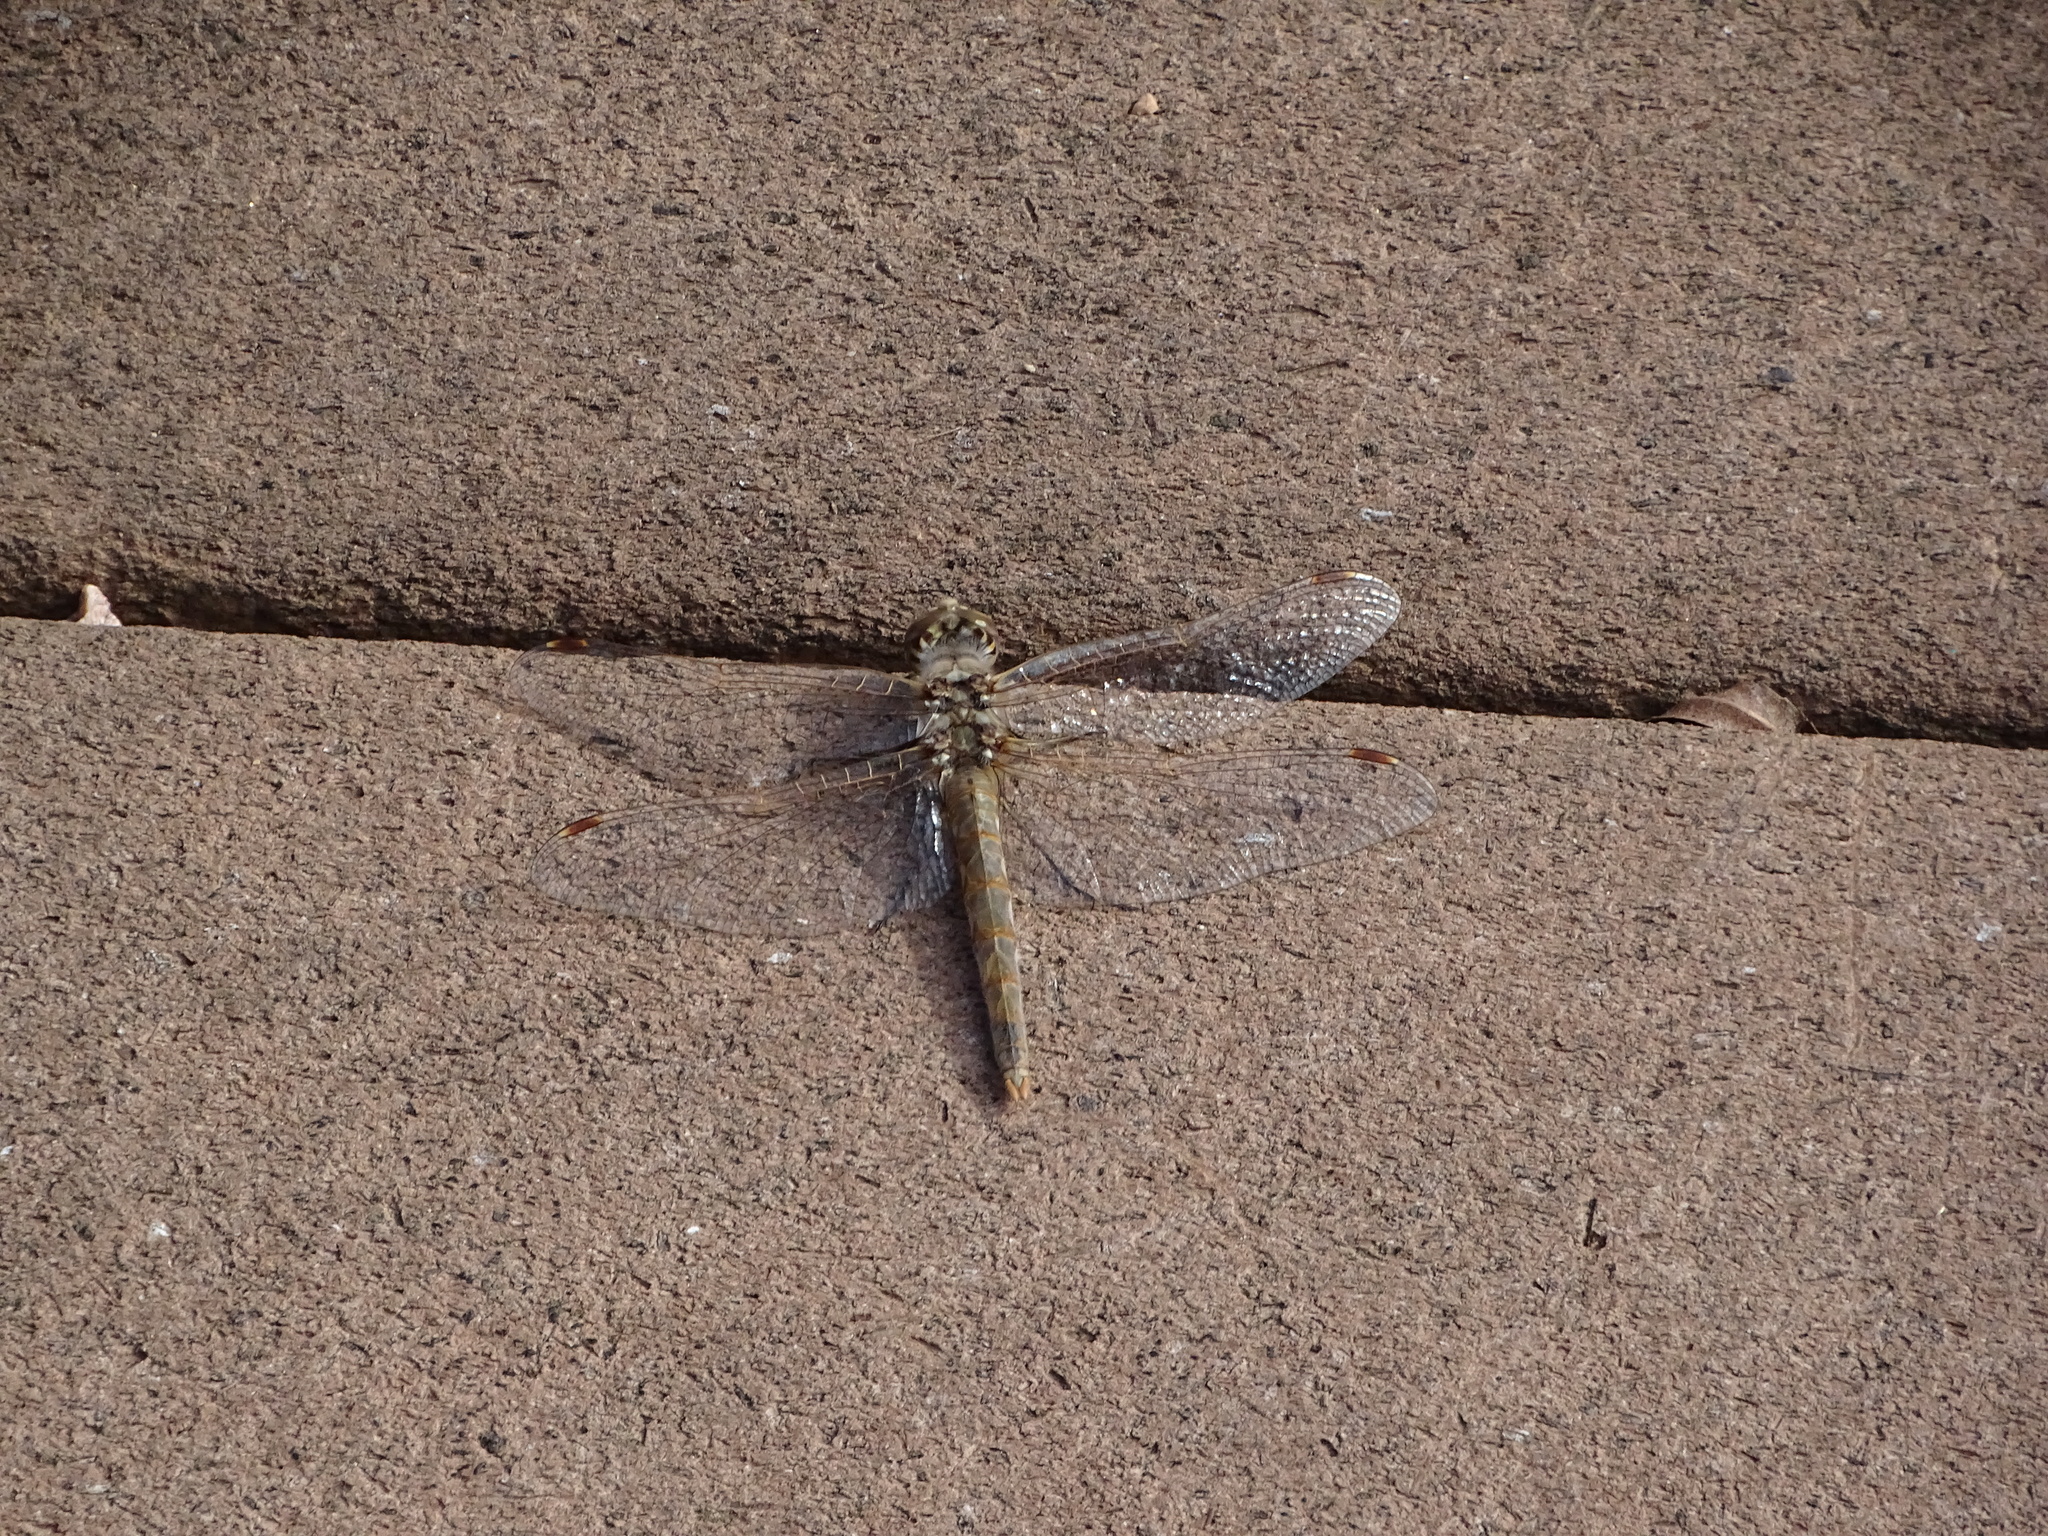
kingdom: Animalia
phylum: Arthropoda
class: Insecta
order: Odonata
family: Libellulidae
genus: Sympetrum
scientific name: Sympetrum corruptum
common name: Variegated meadowhawk
